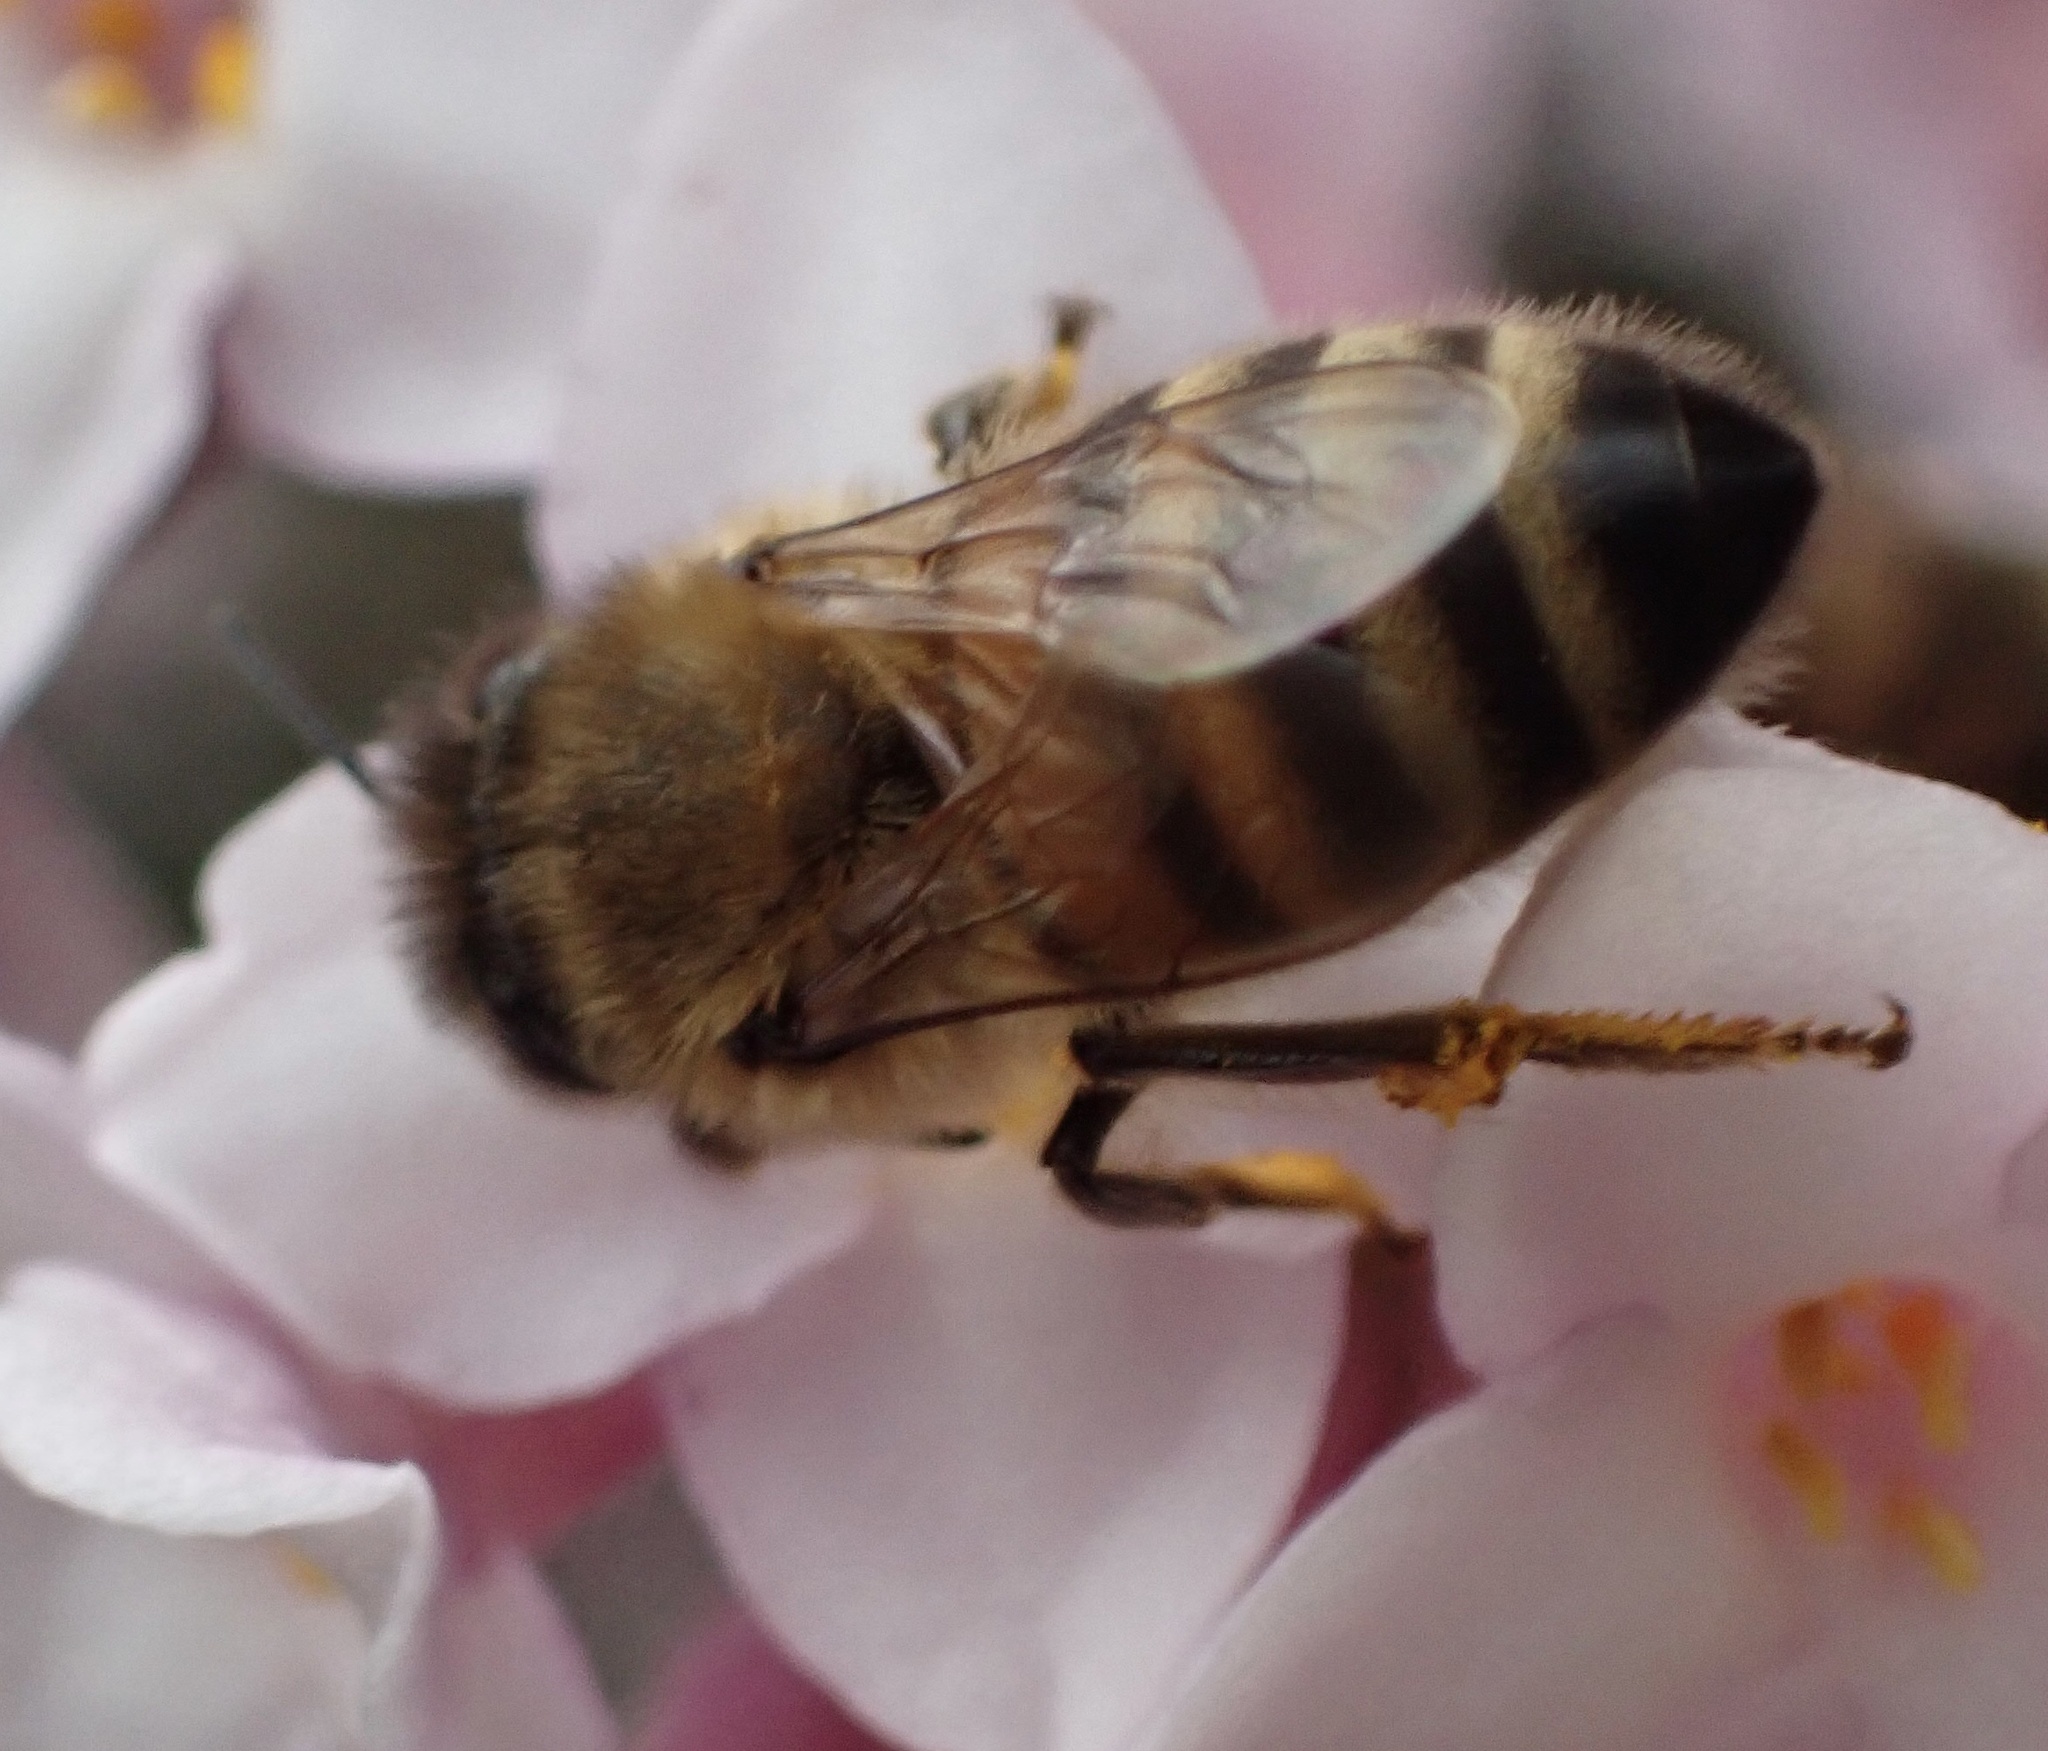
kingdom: Animalia
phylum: Arthropoda
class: Insecta
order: Hymenoptera
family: Apidae
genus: Apis
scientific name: Apis mellifera
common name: Honey bee
